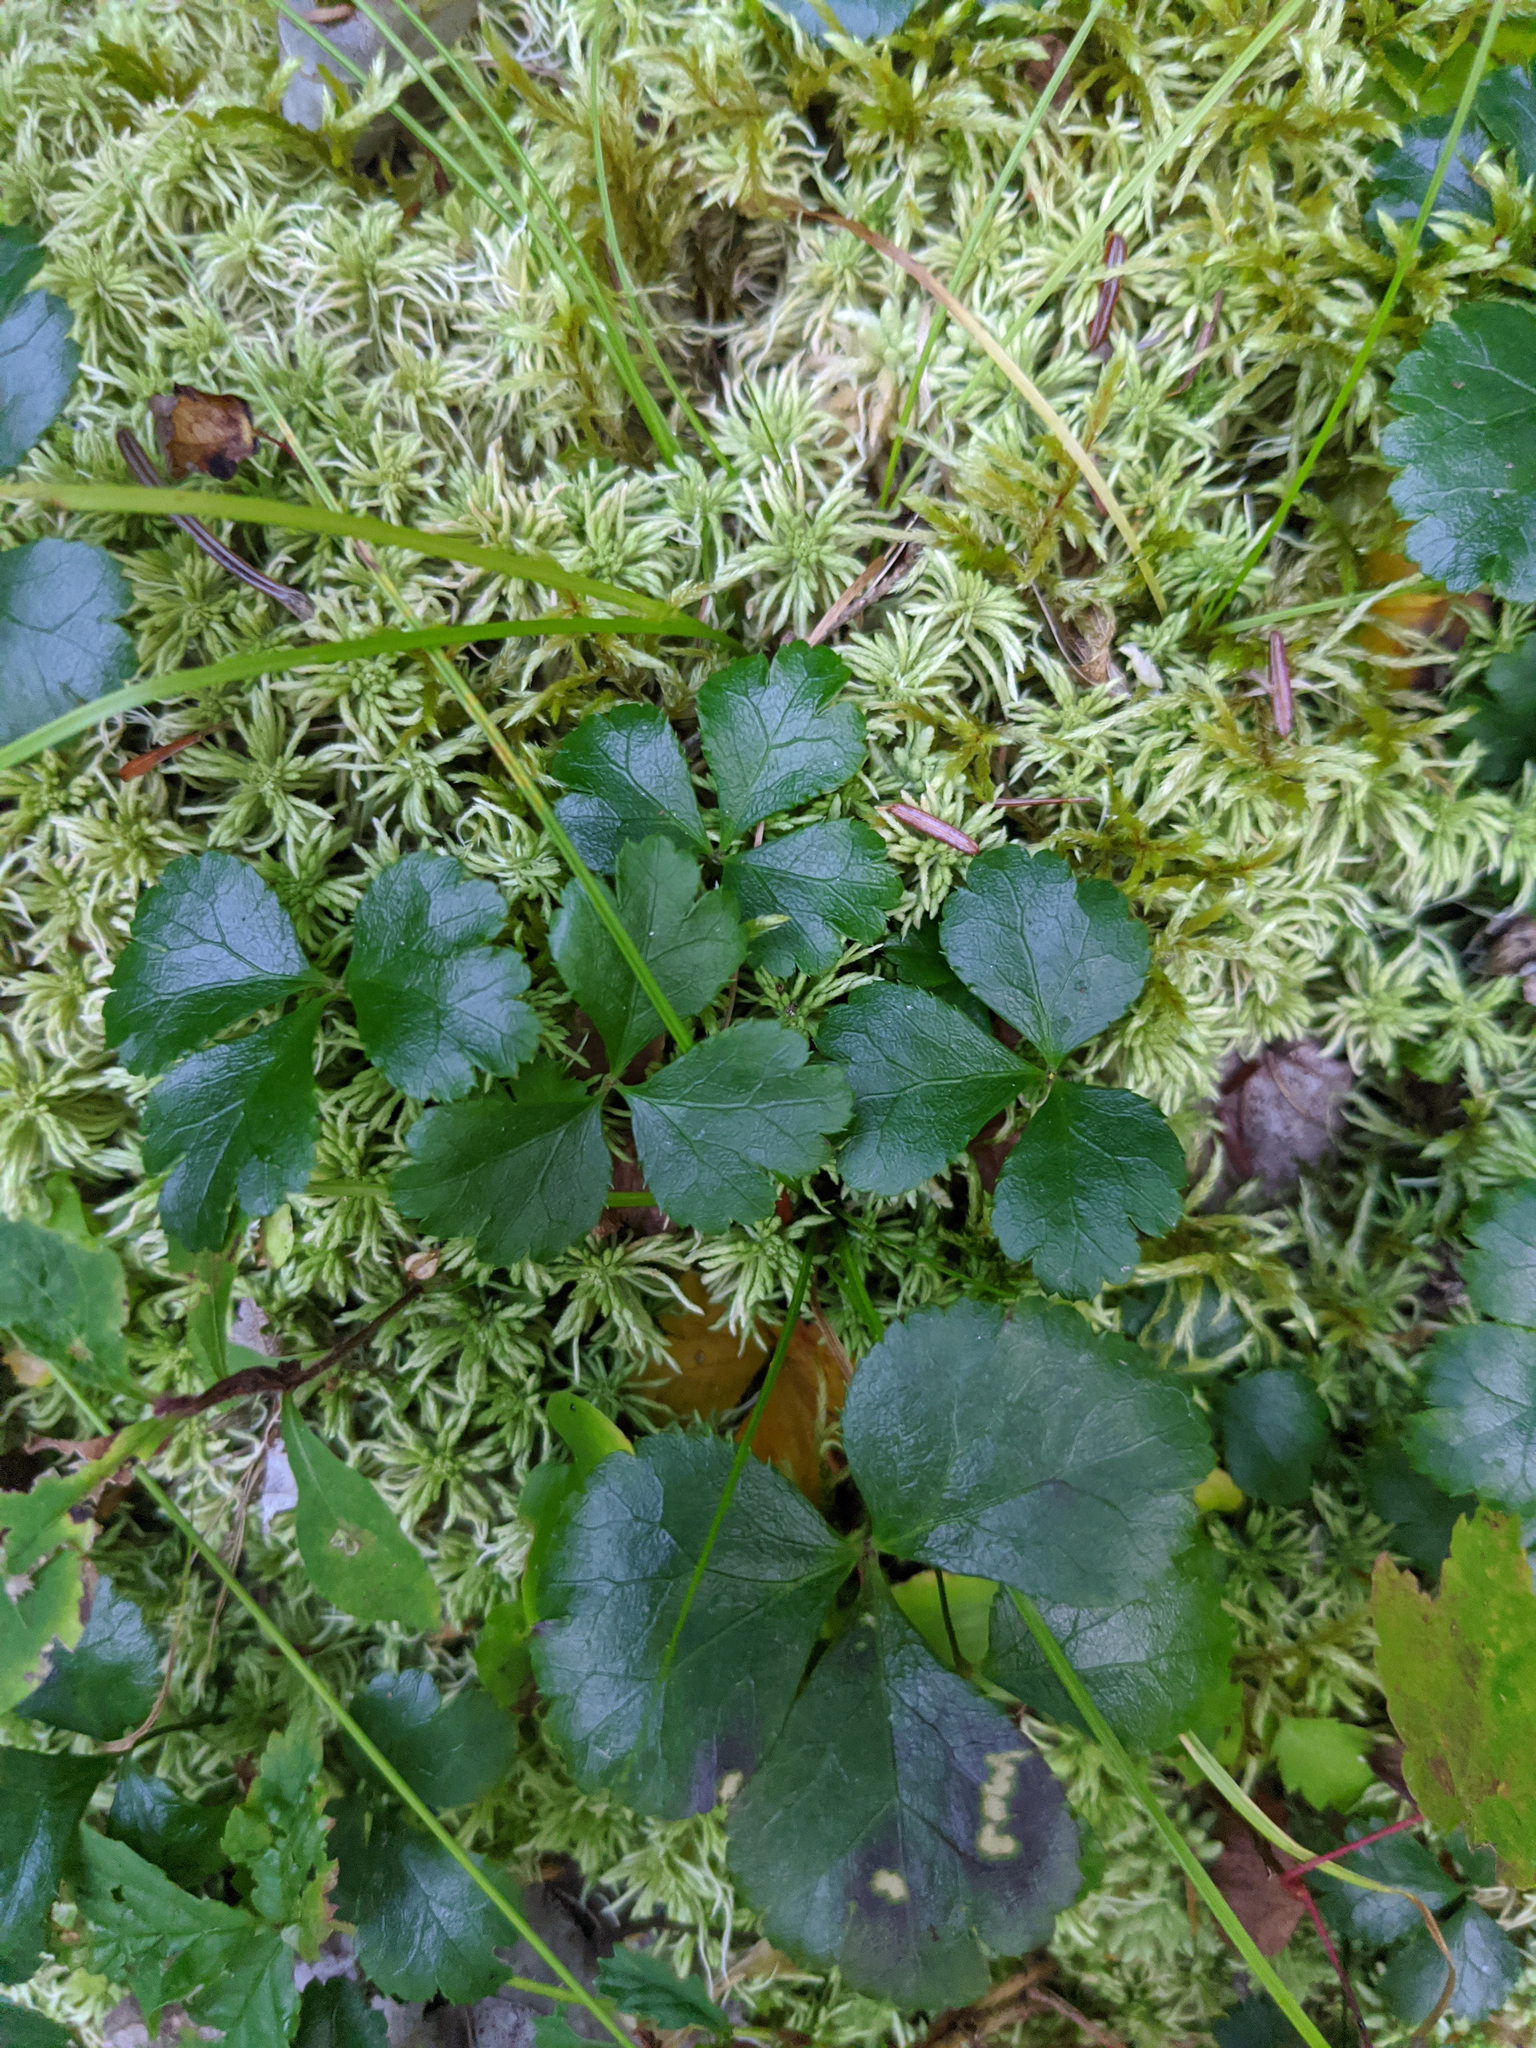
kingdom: Plantae
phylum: Tracheophyta
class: Magnoliopsida
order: Ranunculales
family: Ranunculaceae
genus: Coptis
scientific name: Coptis trifolia
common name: Canker-root
